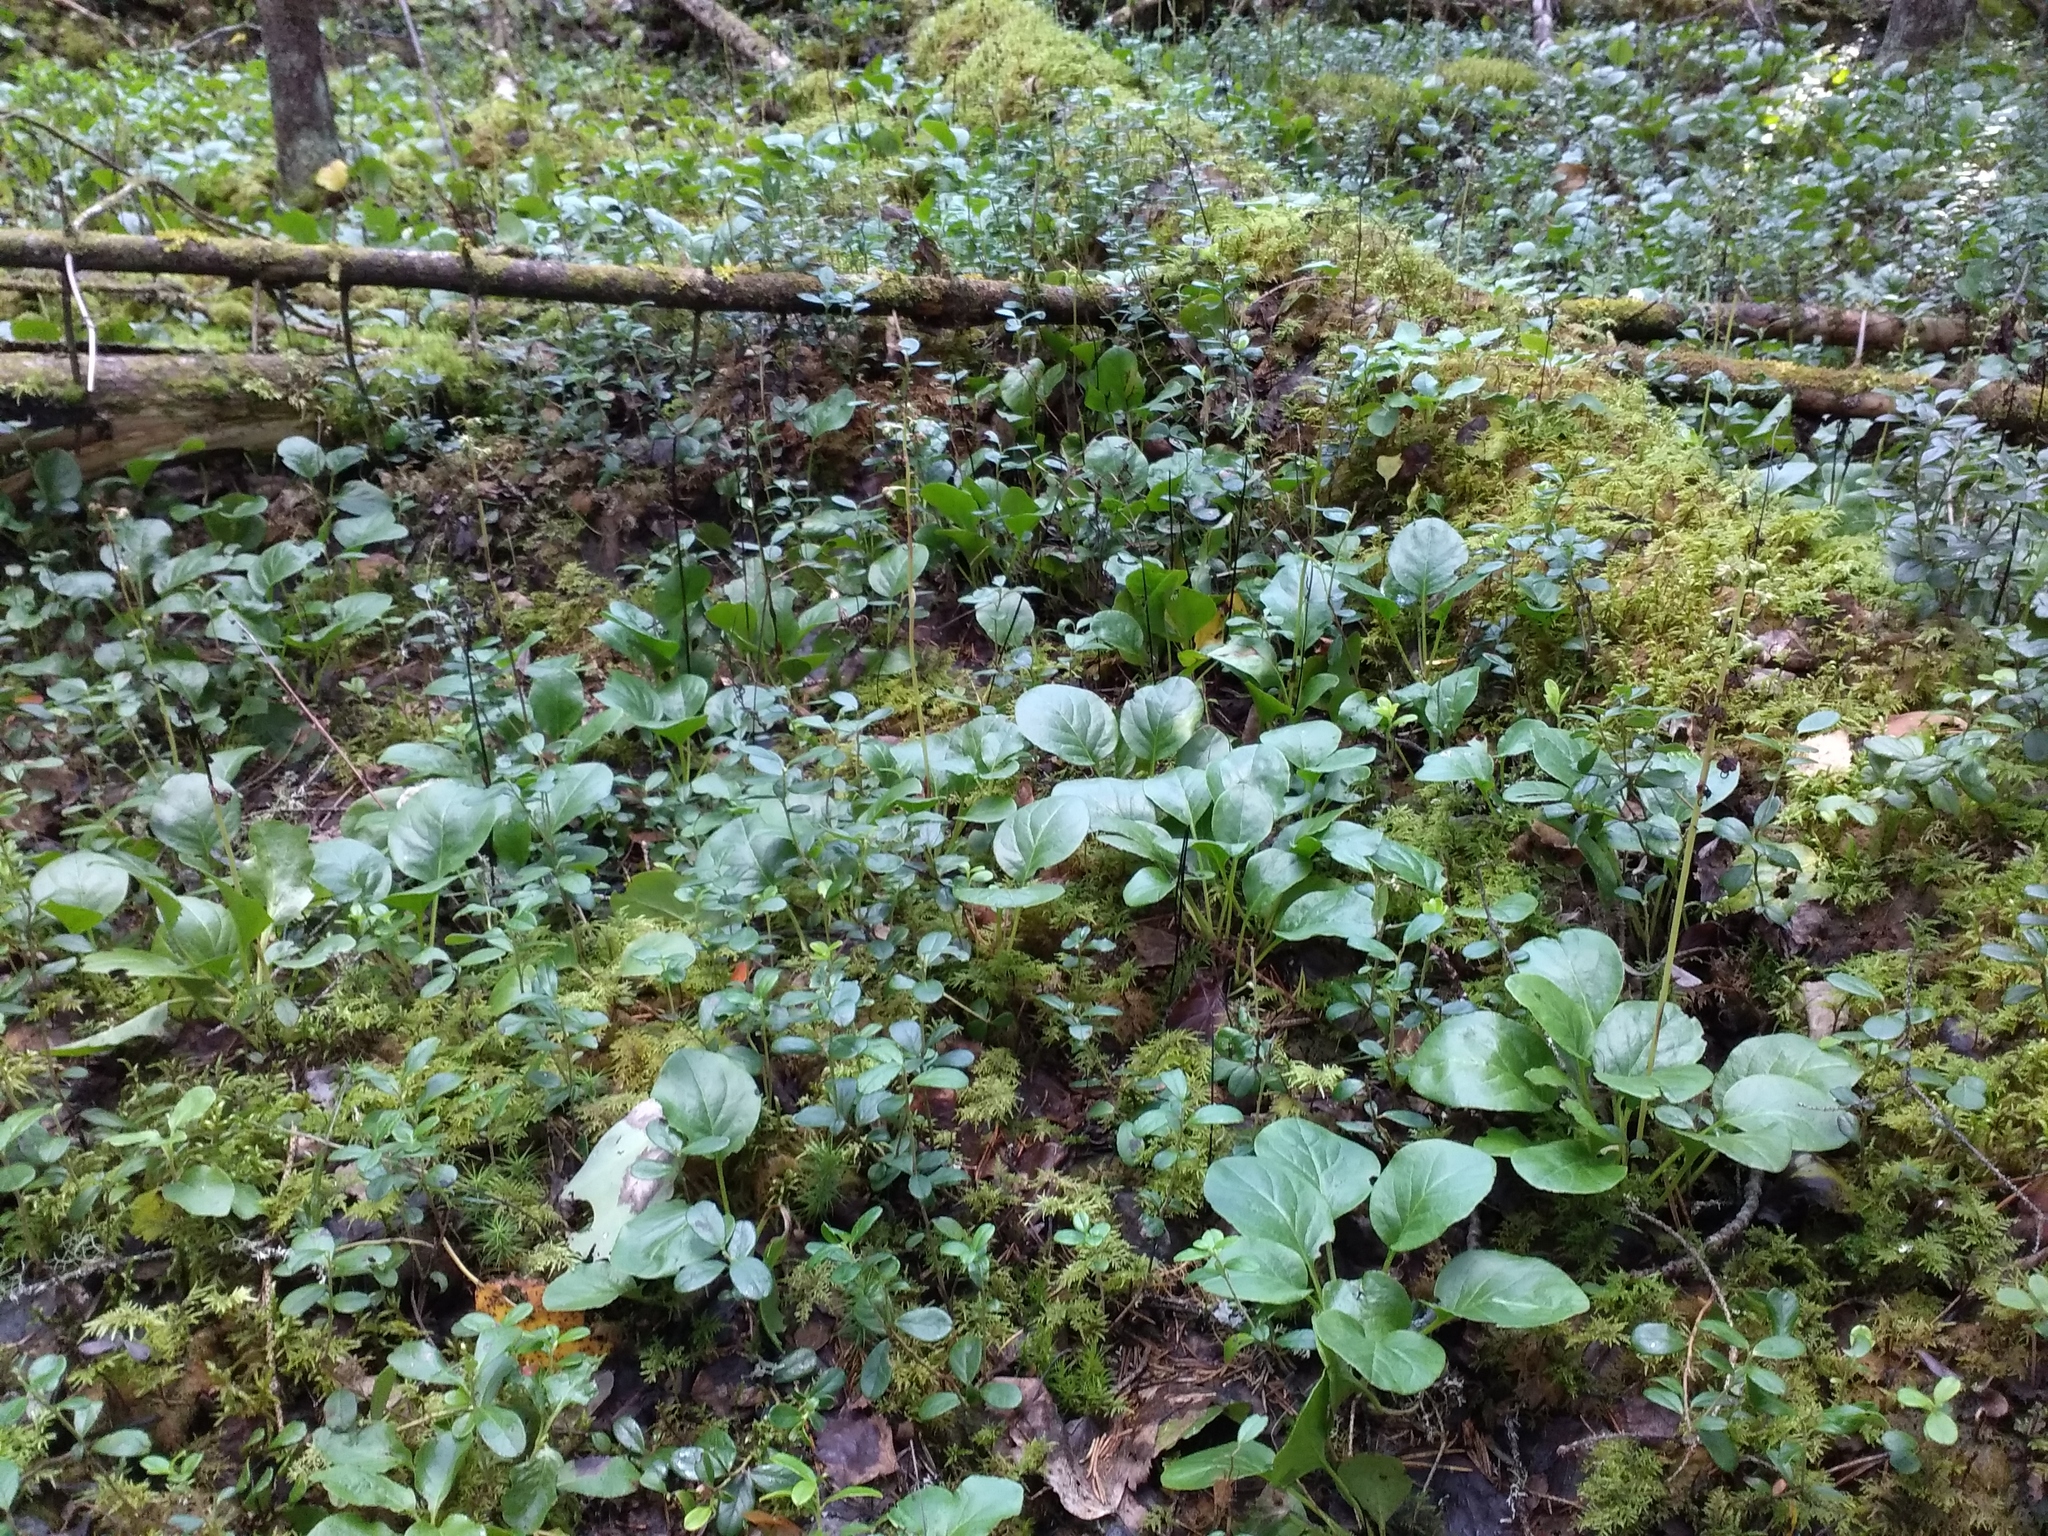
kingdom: Plantae
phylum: Tracheophyta
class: Magnoliopsida
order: Ericales
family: Ericaceae
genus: Pyrola
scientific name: Pyrola rotundifolia
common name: Round-leaved wintergreen
